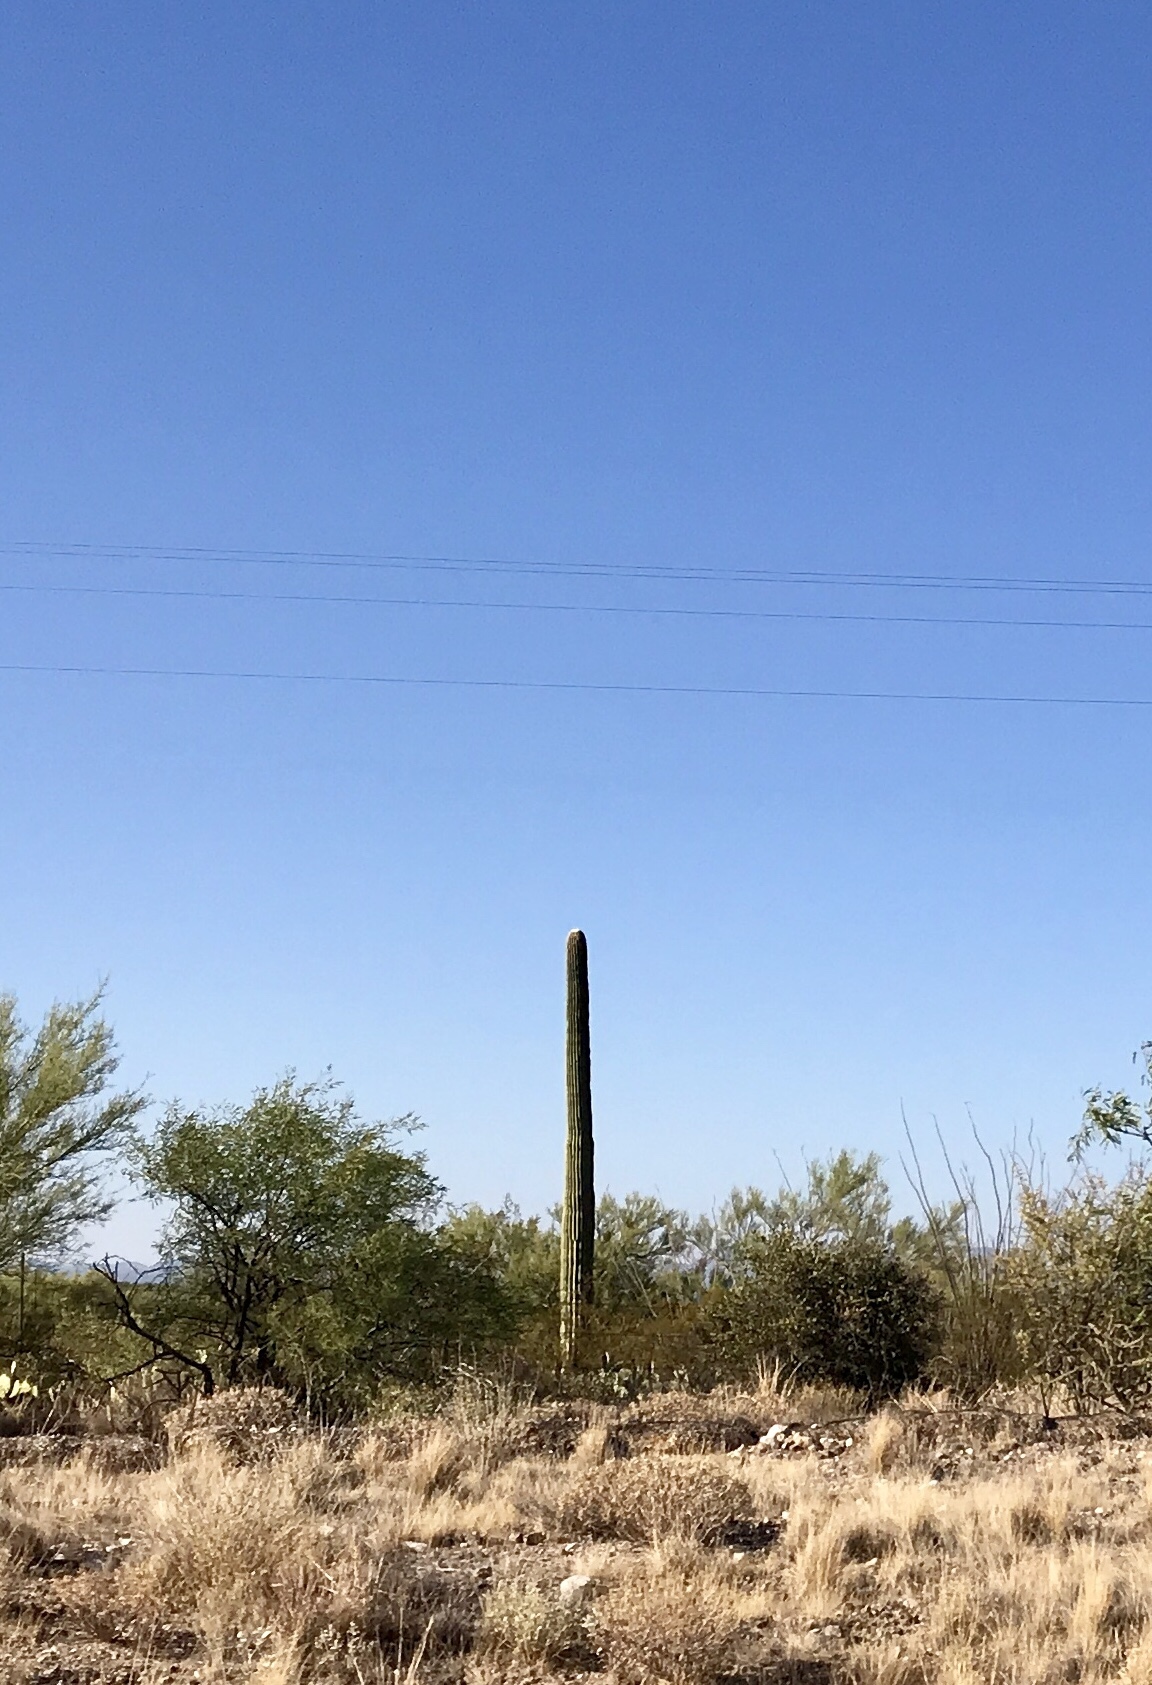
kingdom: Plantae
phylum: Tracheophyta
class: Magnoliopsida
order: Caryophyllales
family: Cactaceae
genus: Carnegiea
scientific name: Carnegiea gigantea
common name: Saguaro
